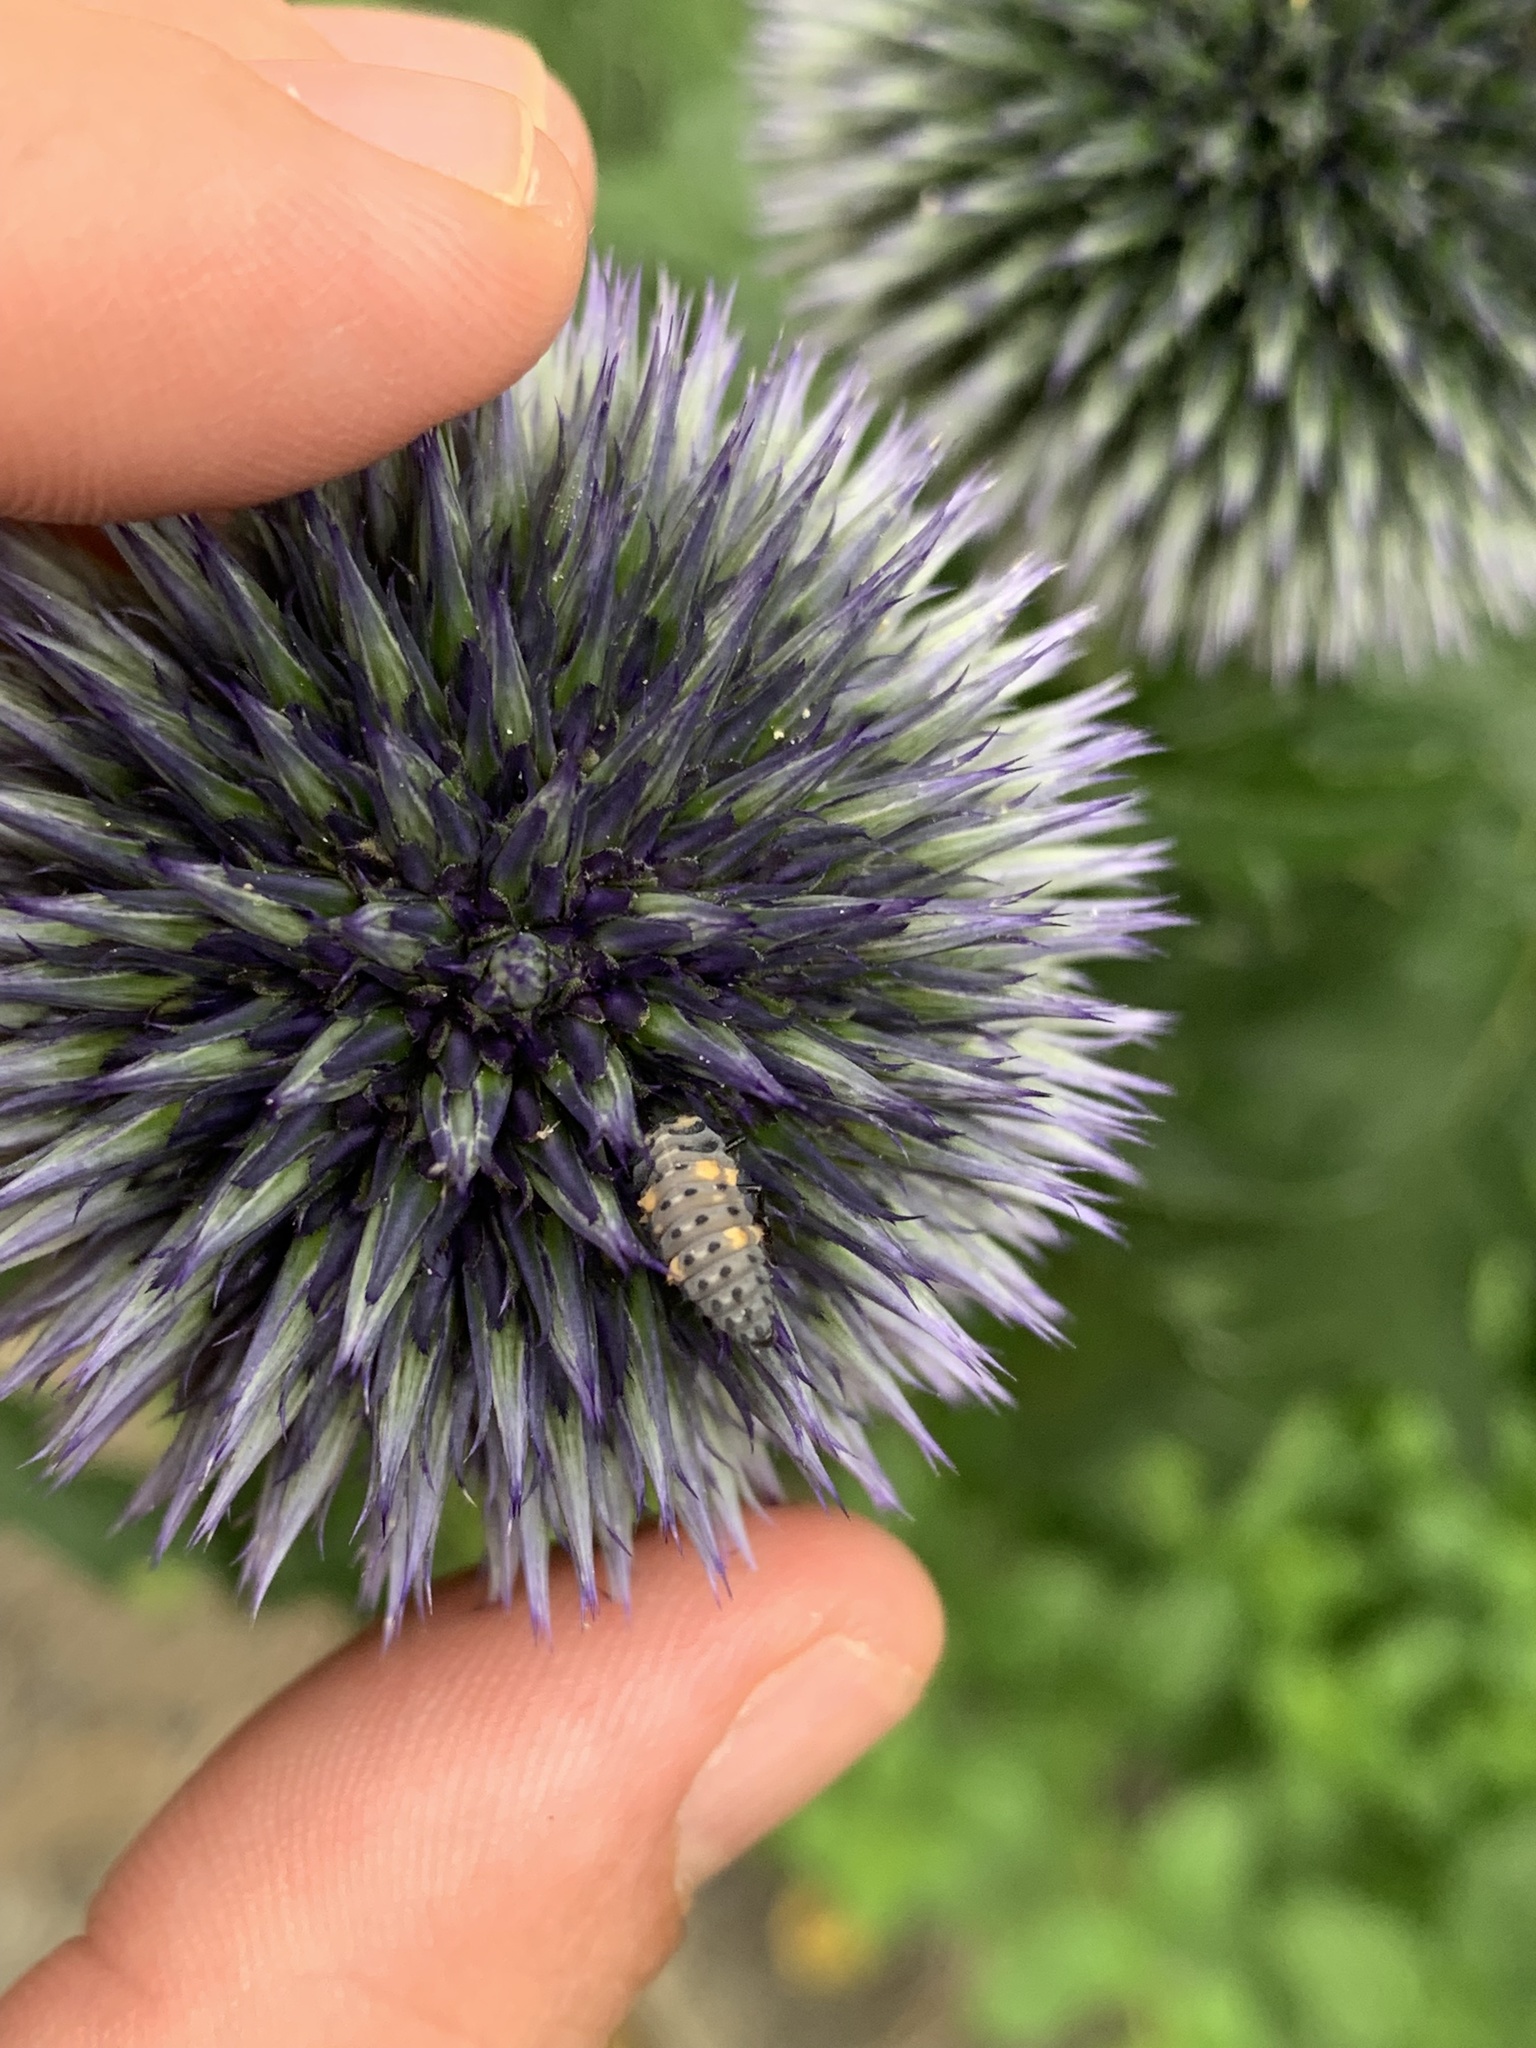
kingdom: Animalia
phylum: Arthropoda
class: Insecta
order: Coleoptera
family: Coccinellidae
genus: Coccinella
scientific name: Coccinella septempunctata
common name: Sevenspotted lady beetle
